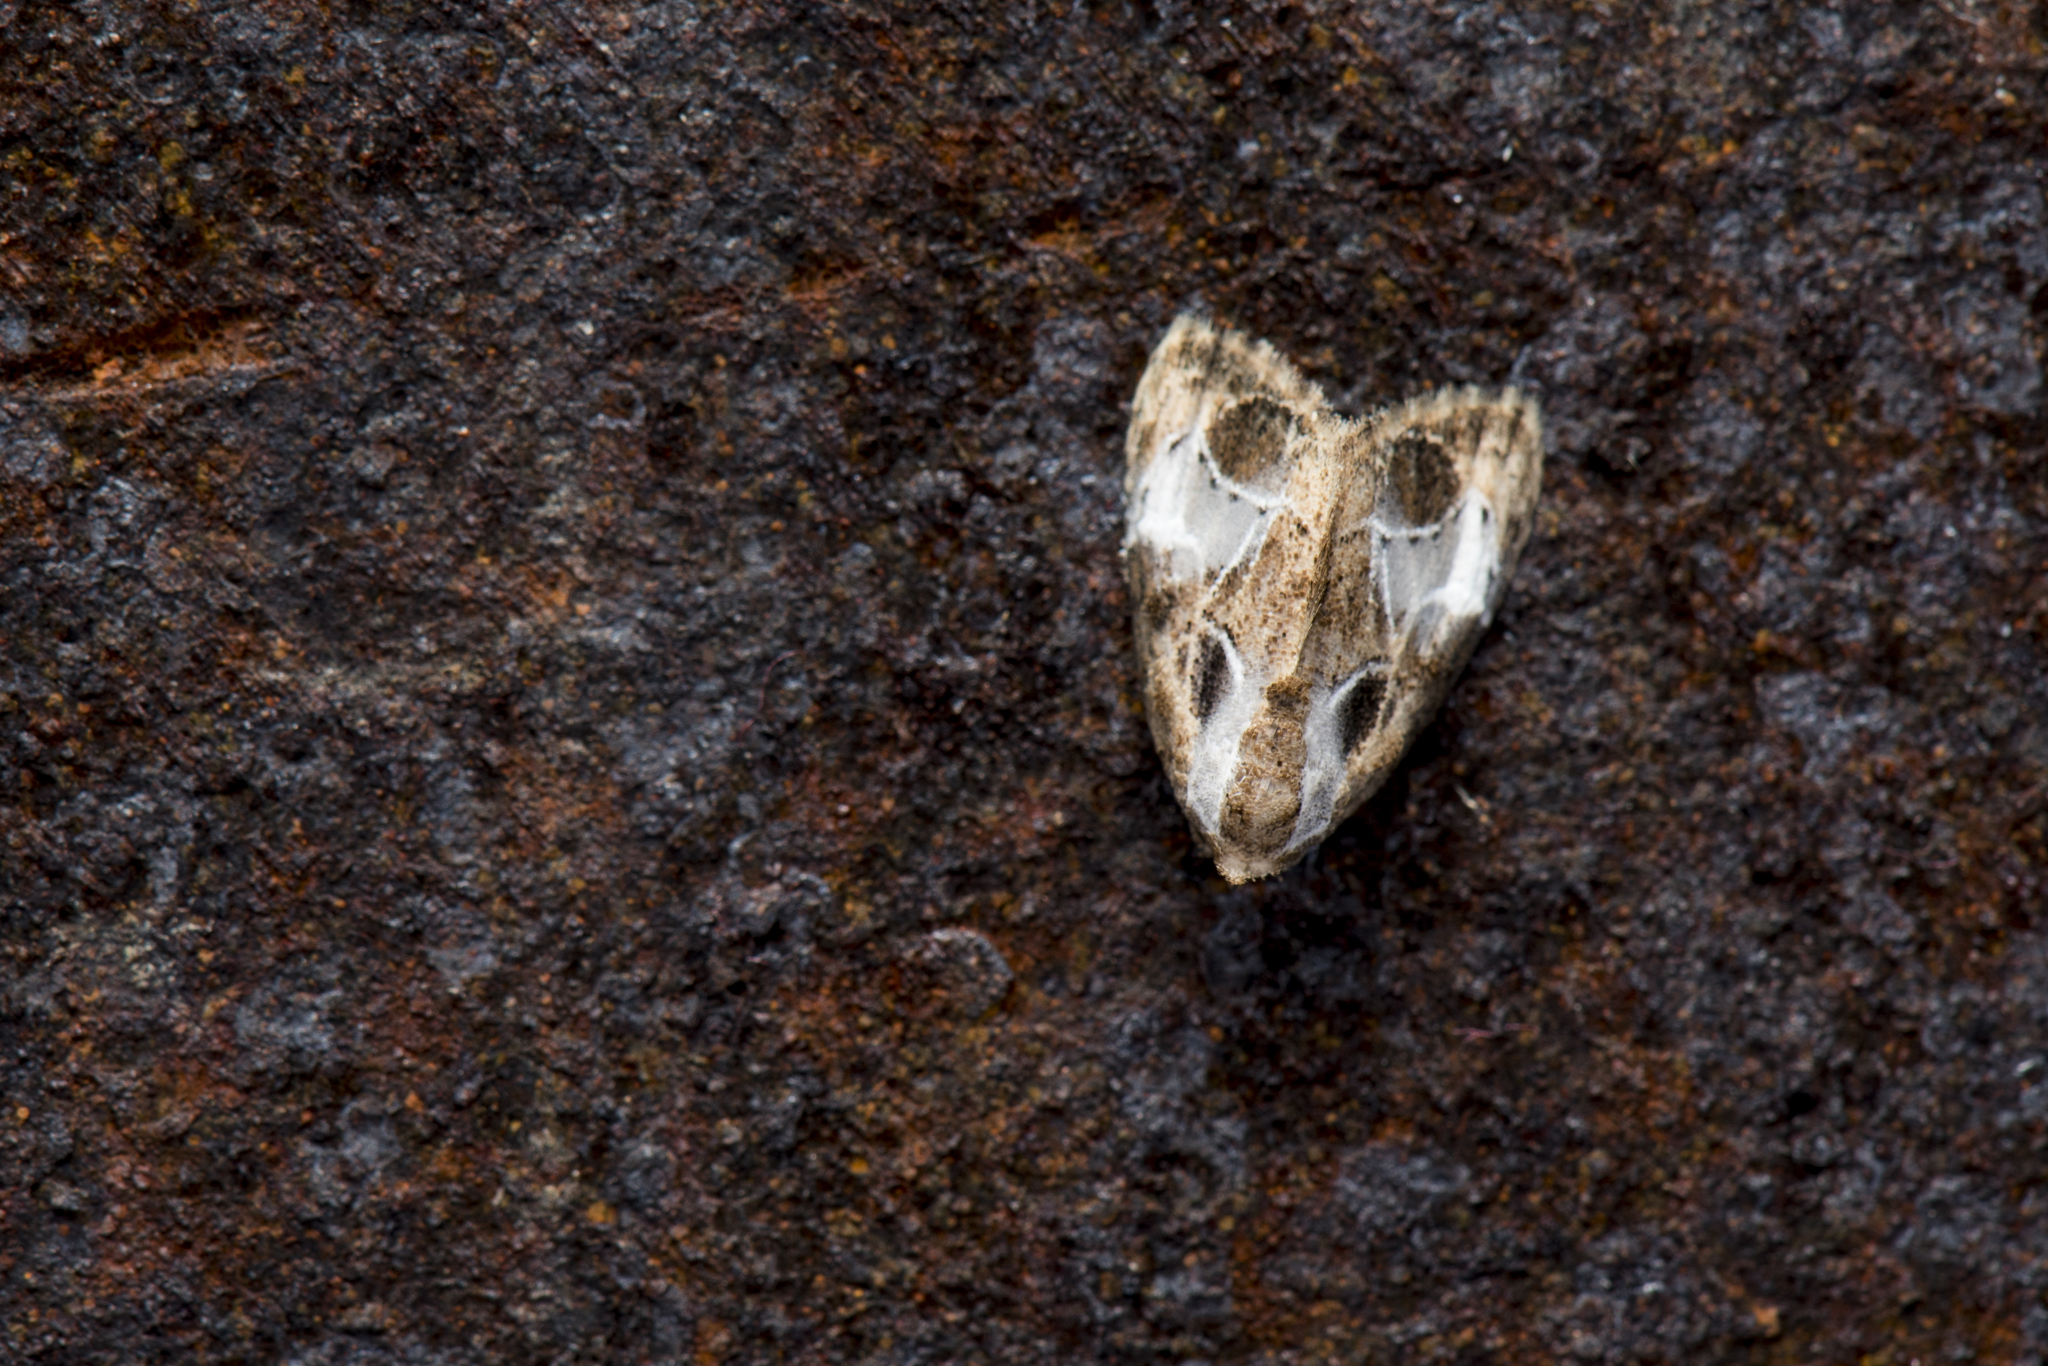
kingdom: Animalia
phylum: Arthropoda
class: Insecta
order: Lepidoptera
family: Nolidae
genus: Evonima
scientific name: Evonima aperta
